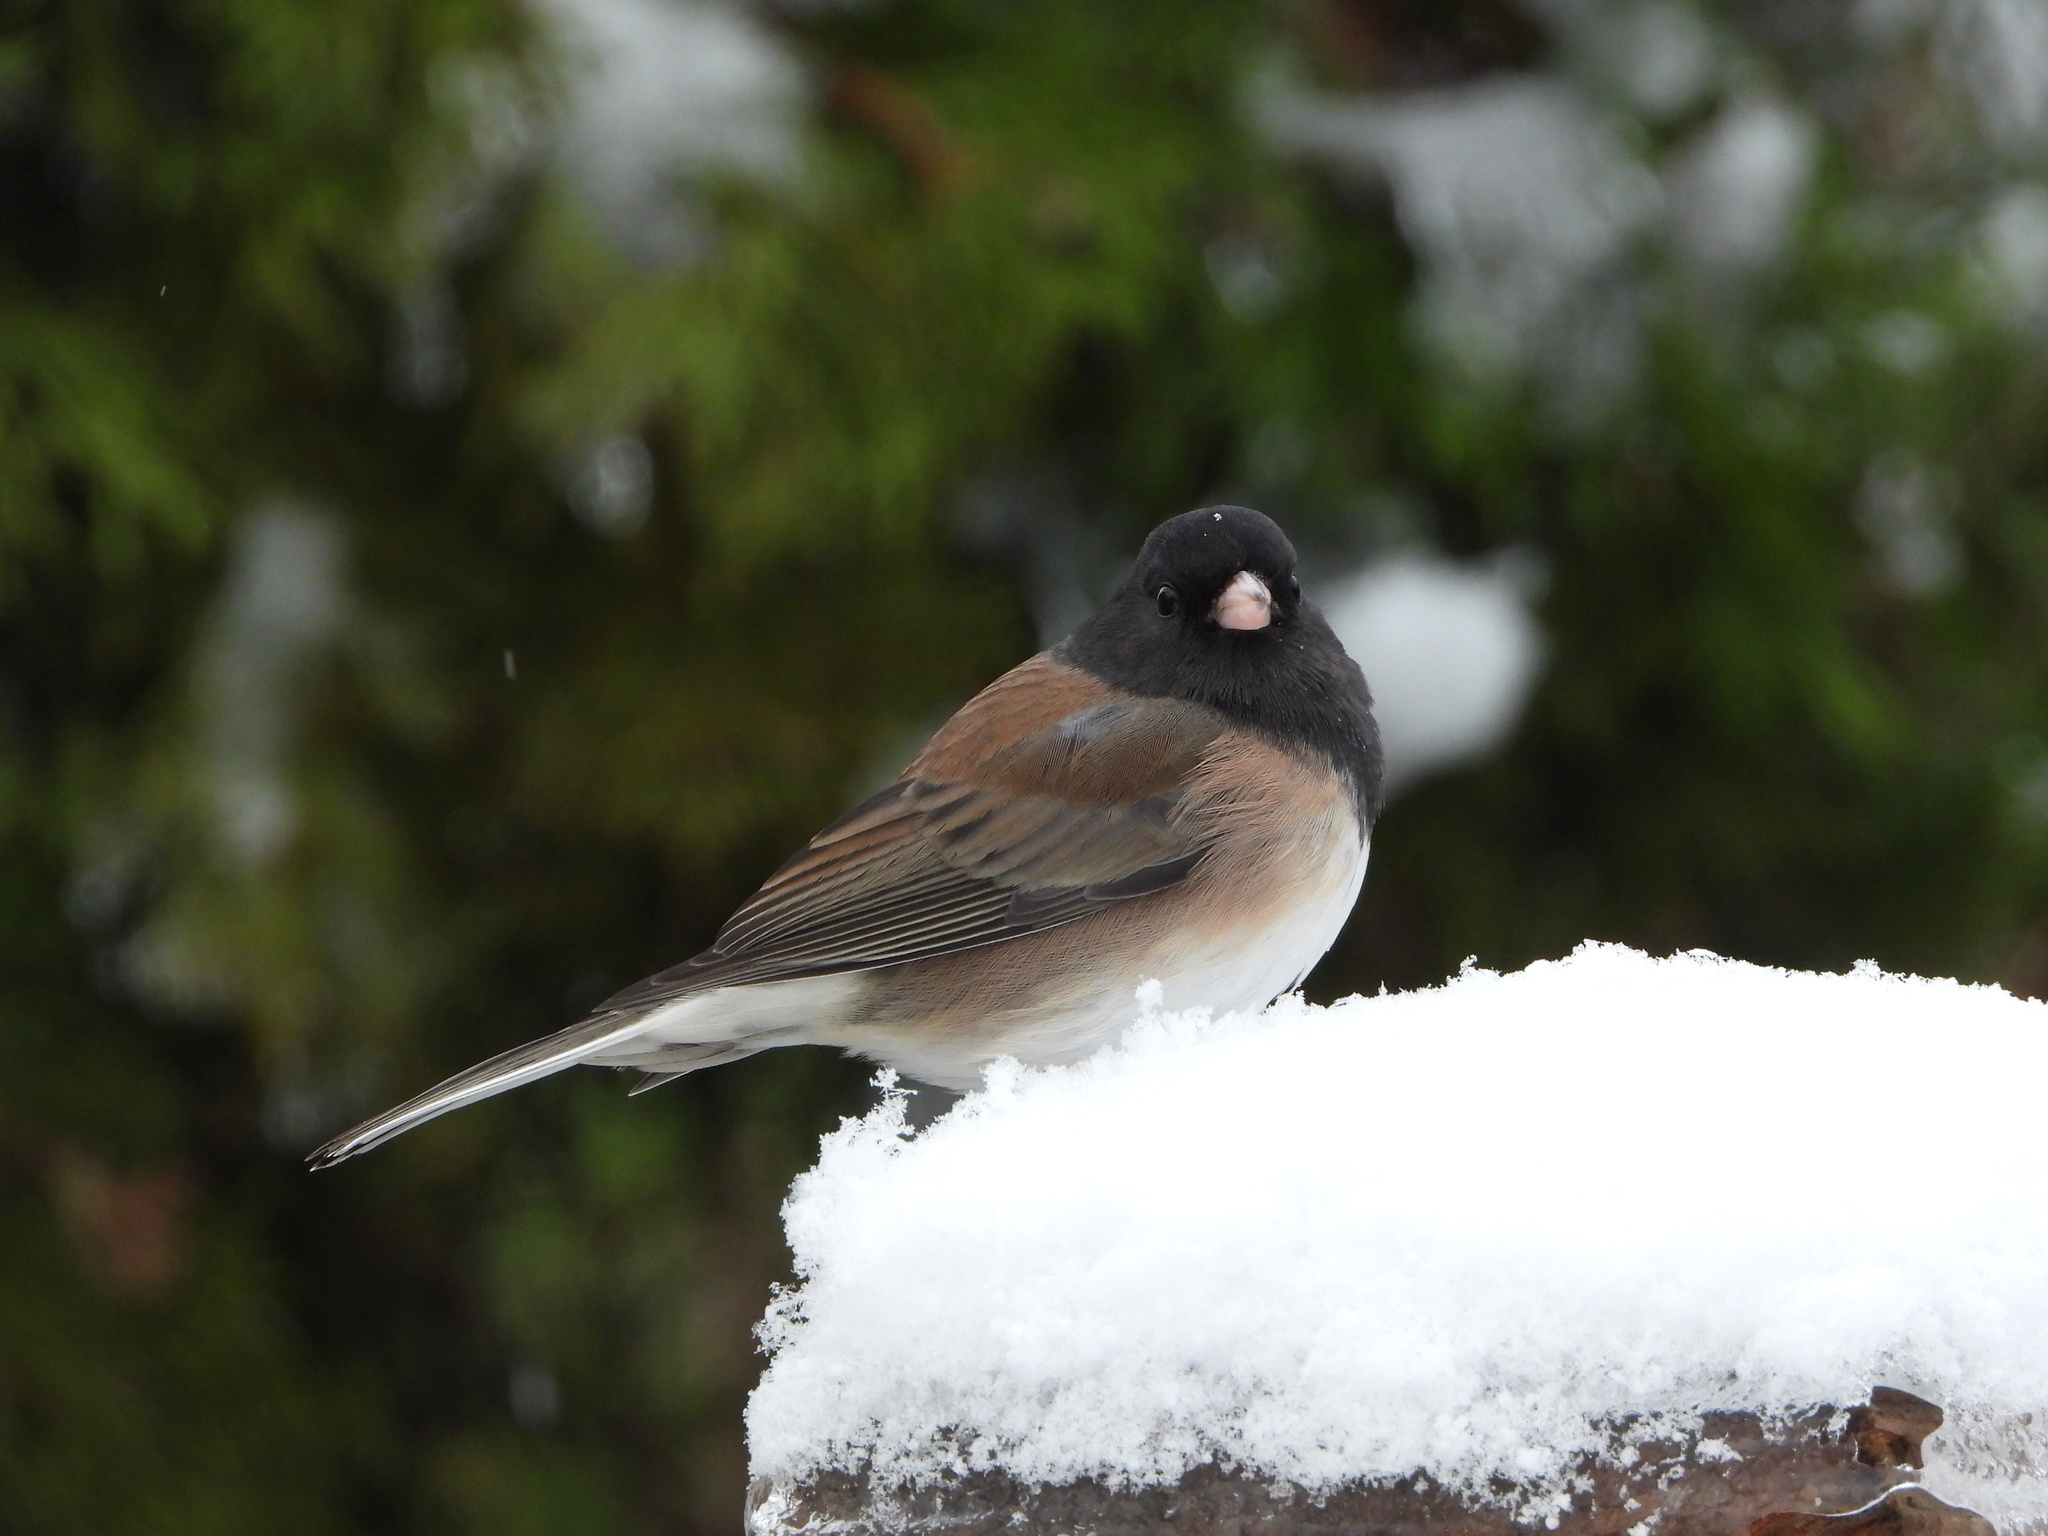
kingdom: Animalia
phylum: Chordata
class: Aves
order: Passeriformes
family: Passerellidae
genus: Junco
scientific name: Junco hyemalis
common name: Dark-eyed junco
